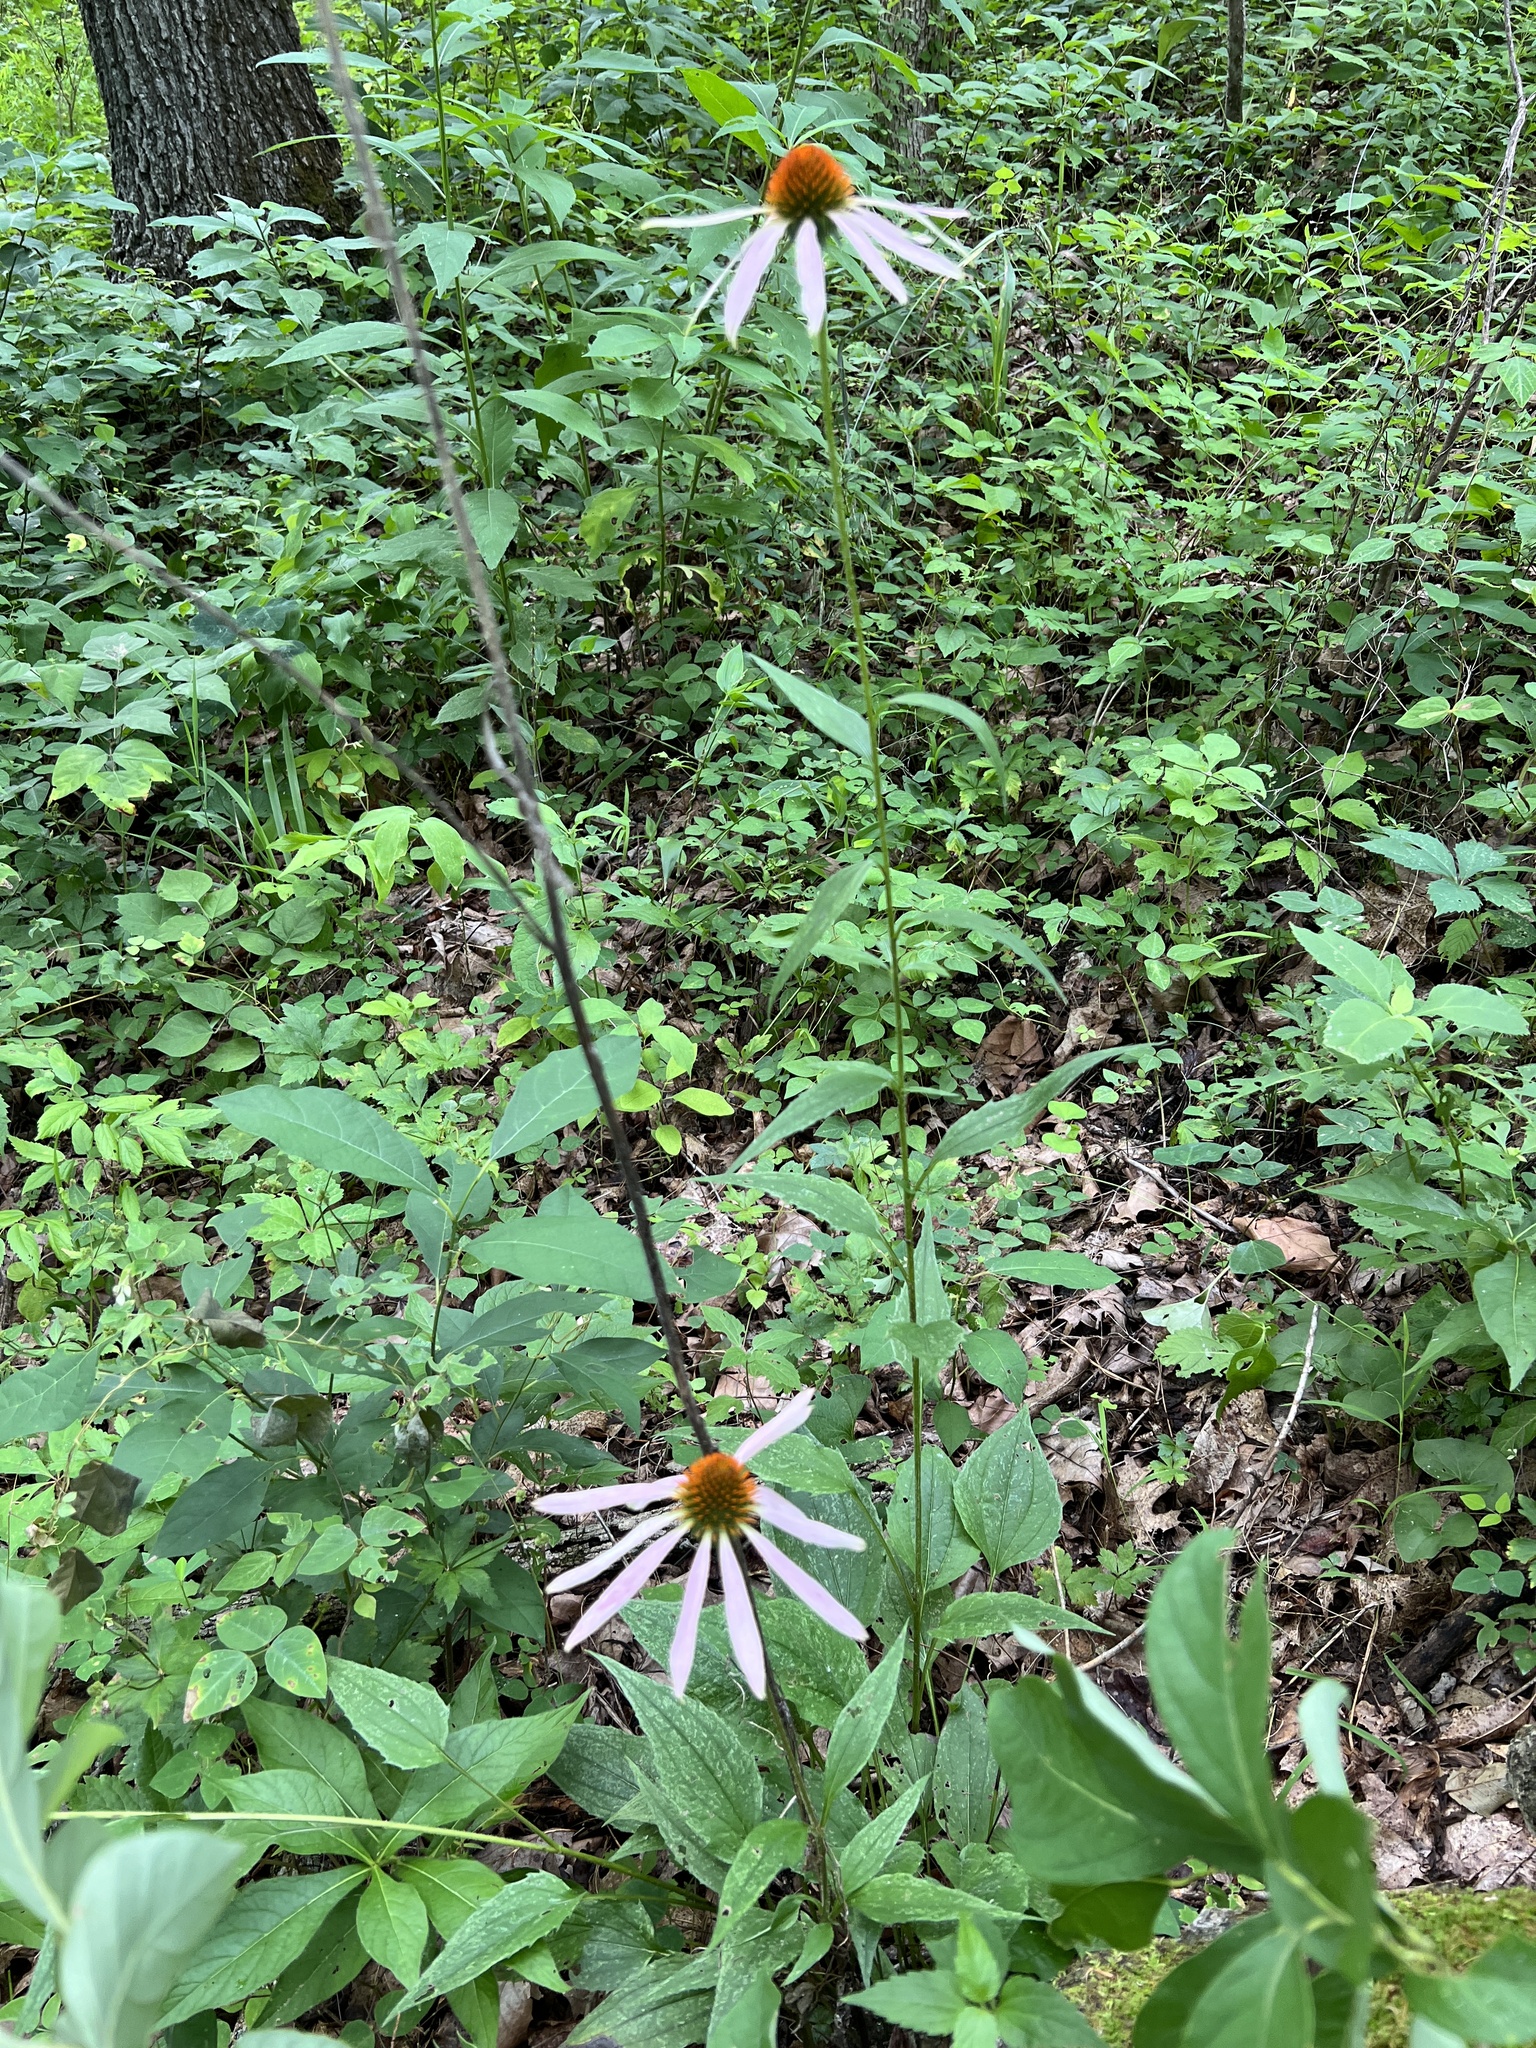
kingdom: Plantae
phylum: Tracheophyta
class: Magnoliopsida
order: Asterales
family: Asteraceae
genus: Echinacea
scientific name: Echinacea purpurea
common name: Broad-leaved purple coneflower
